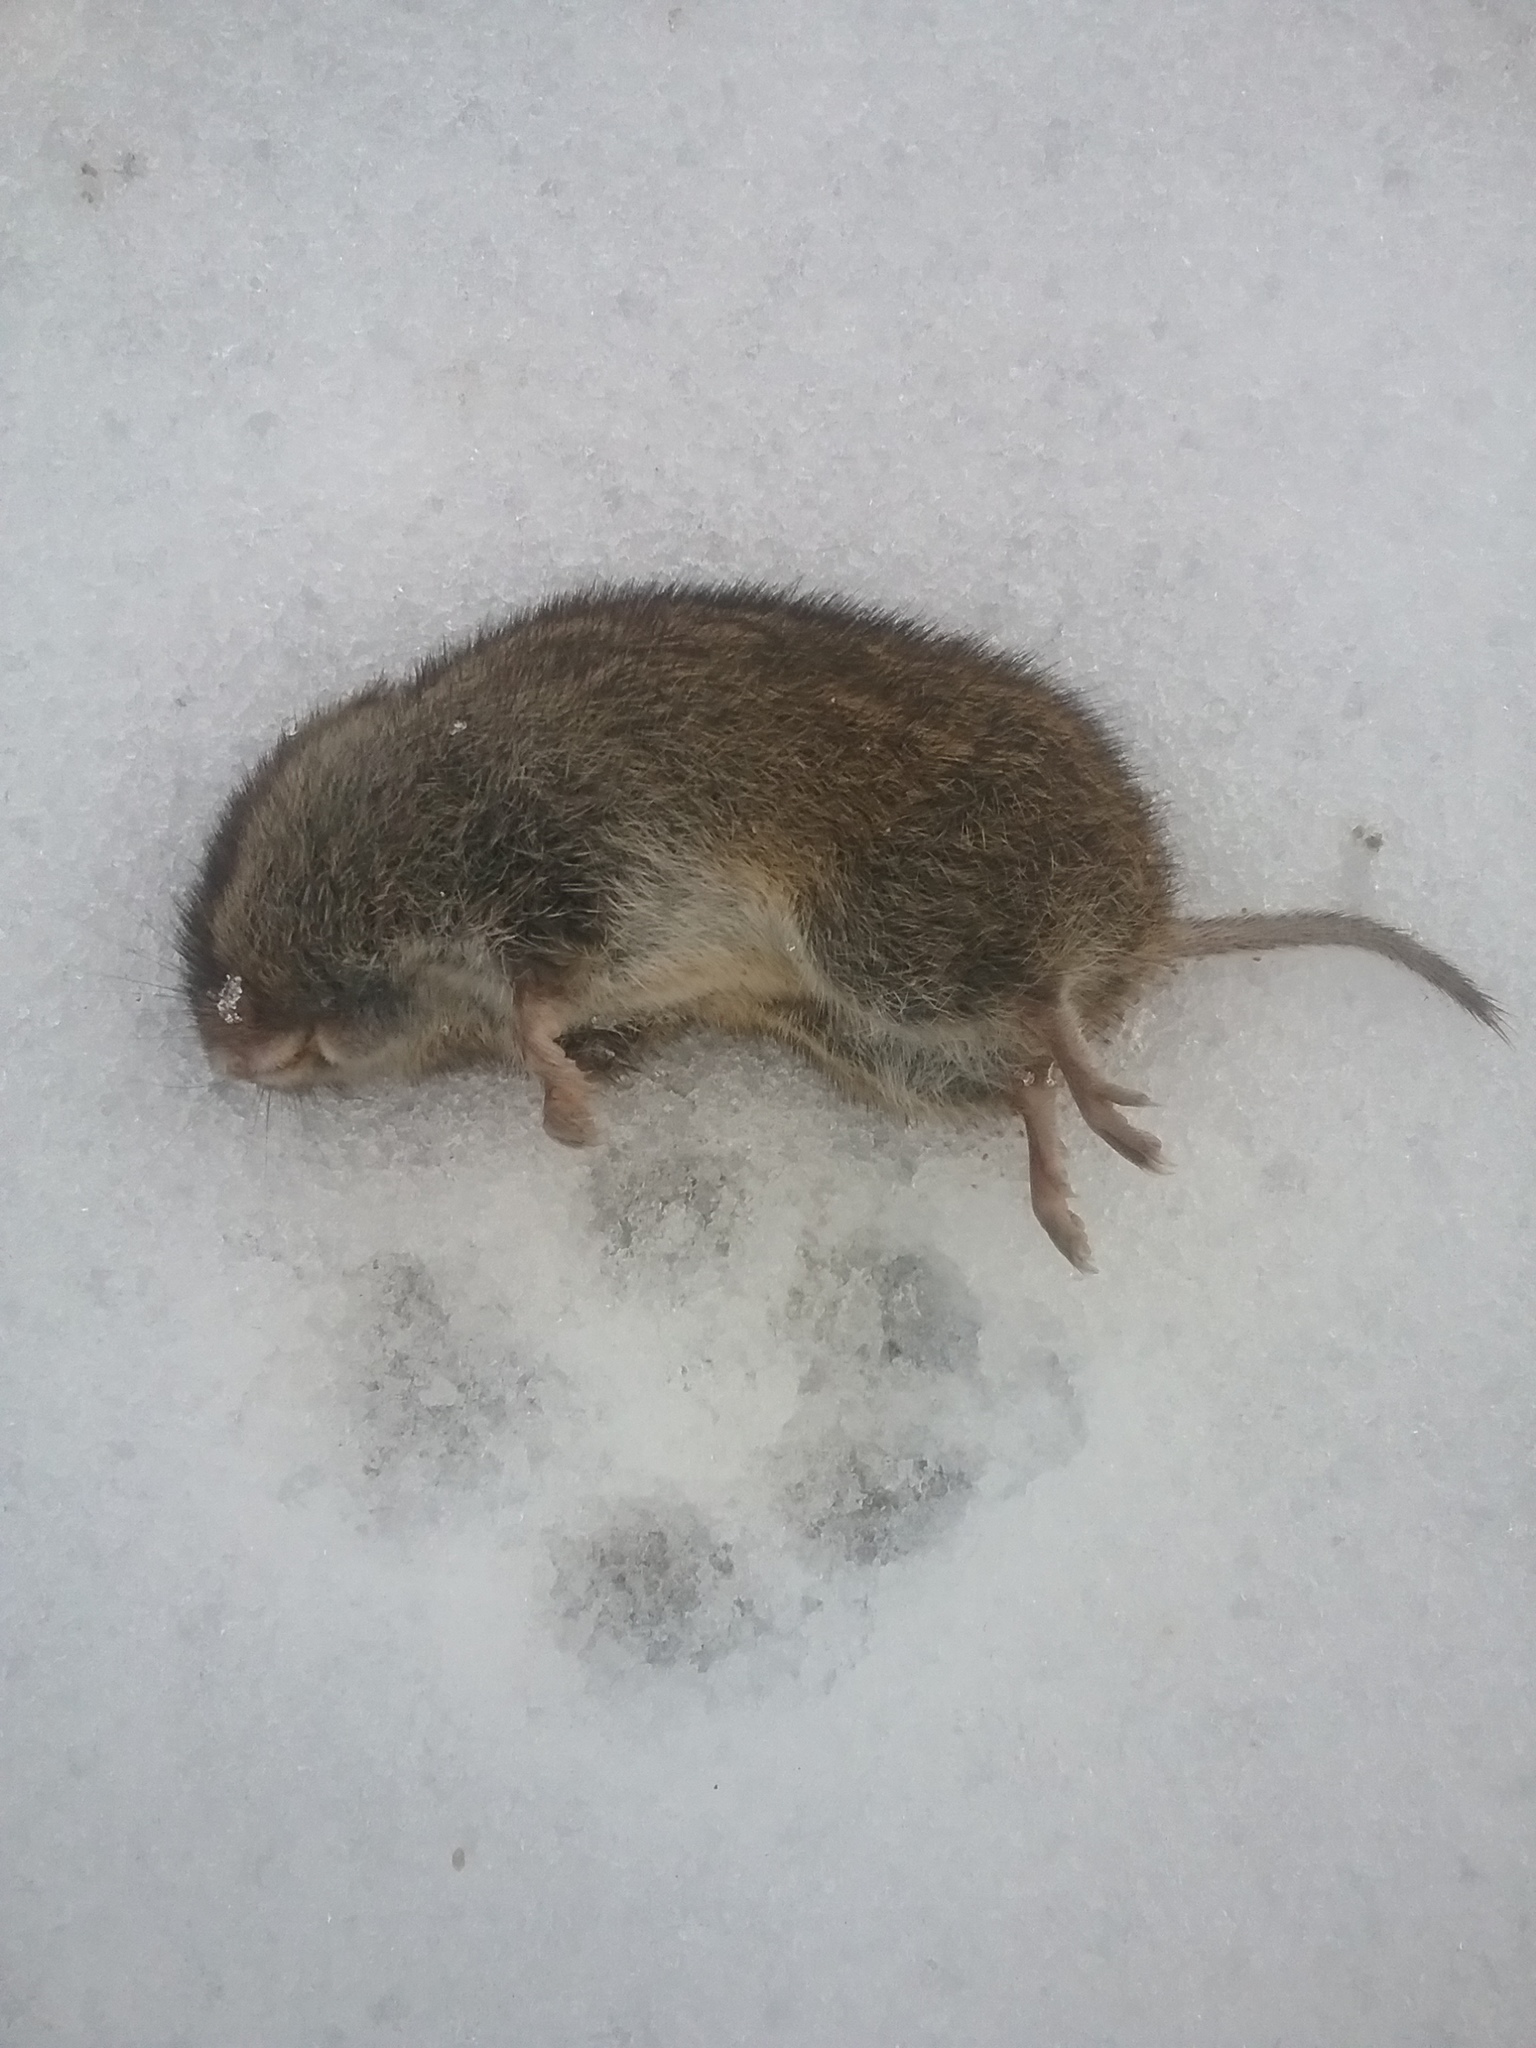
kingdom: Animalia
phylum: Chordata
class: Mammalia
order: Rodentia
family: Cricetidae
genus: Microtus
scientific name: Microtus pennsylvanicus
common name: Meadow vole
